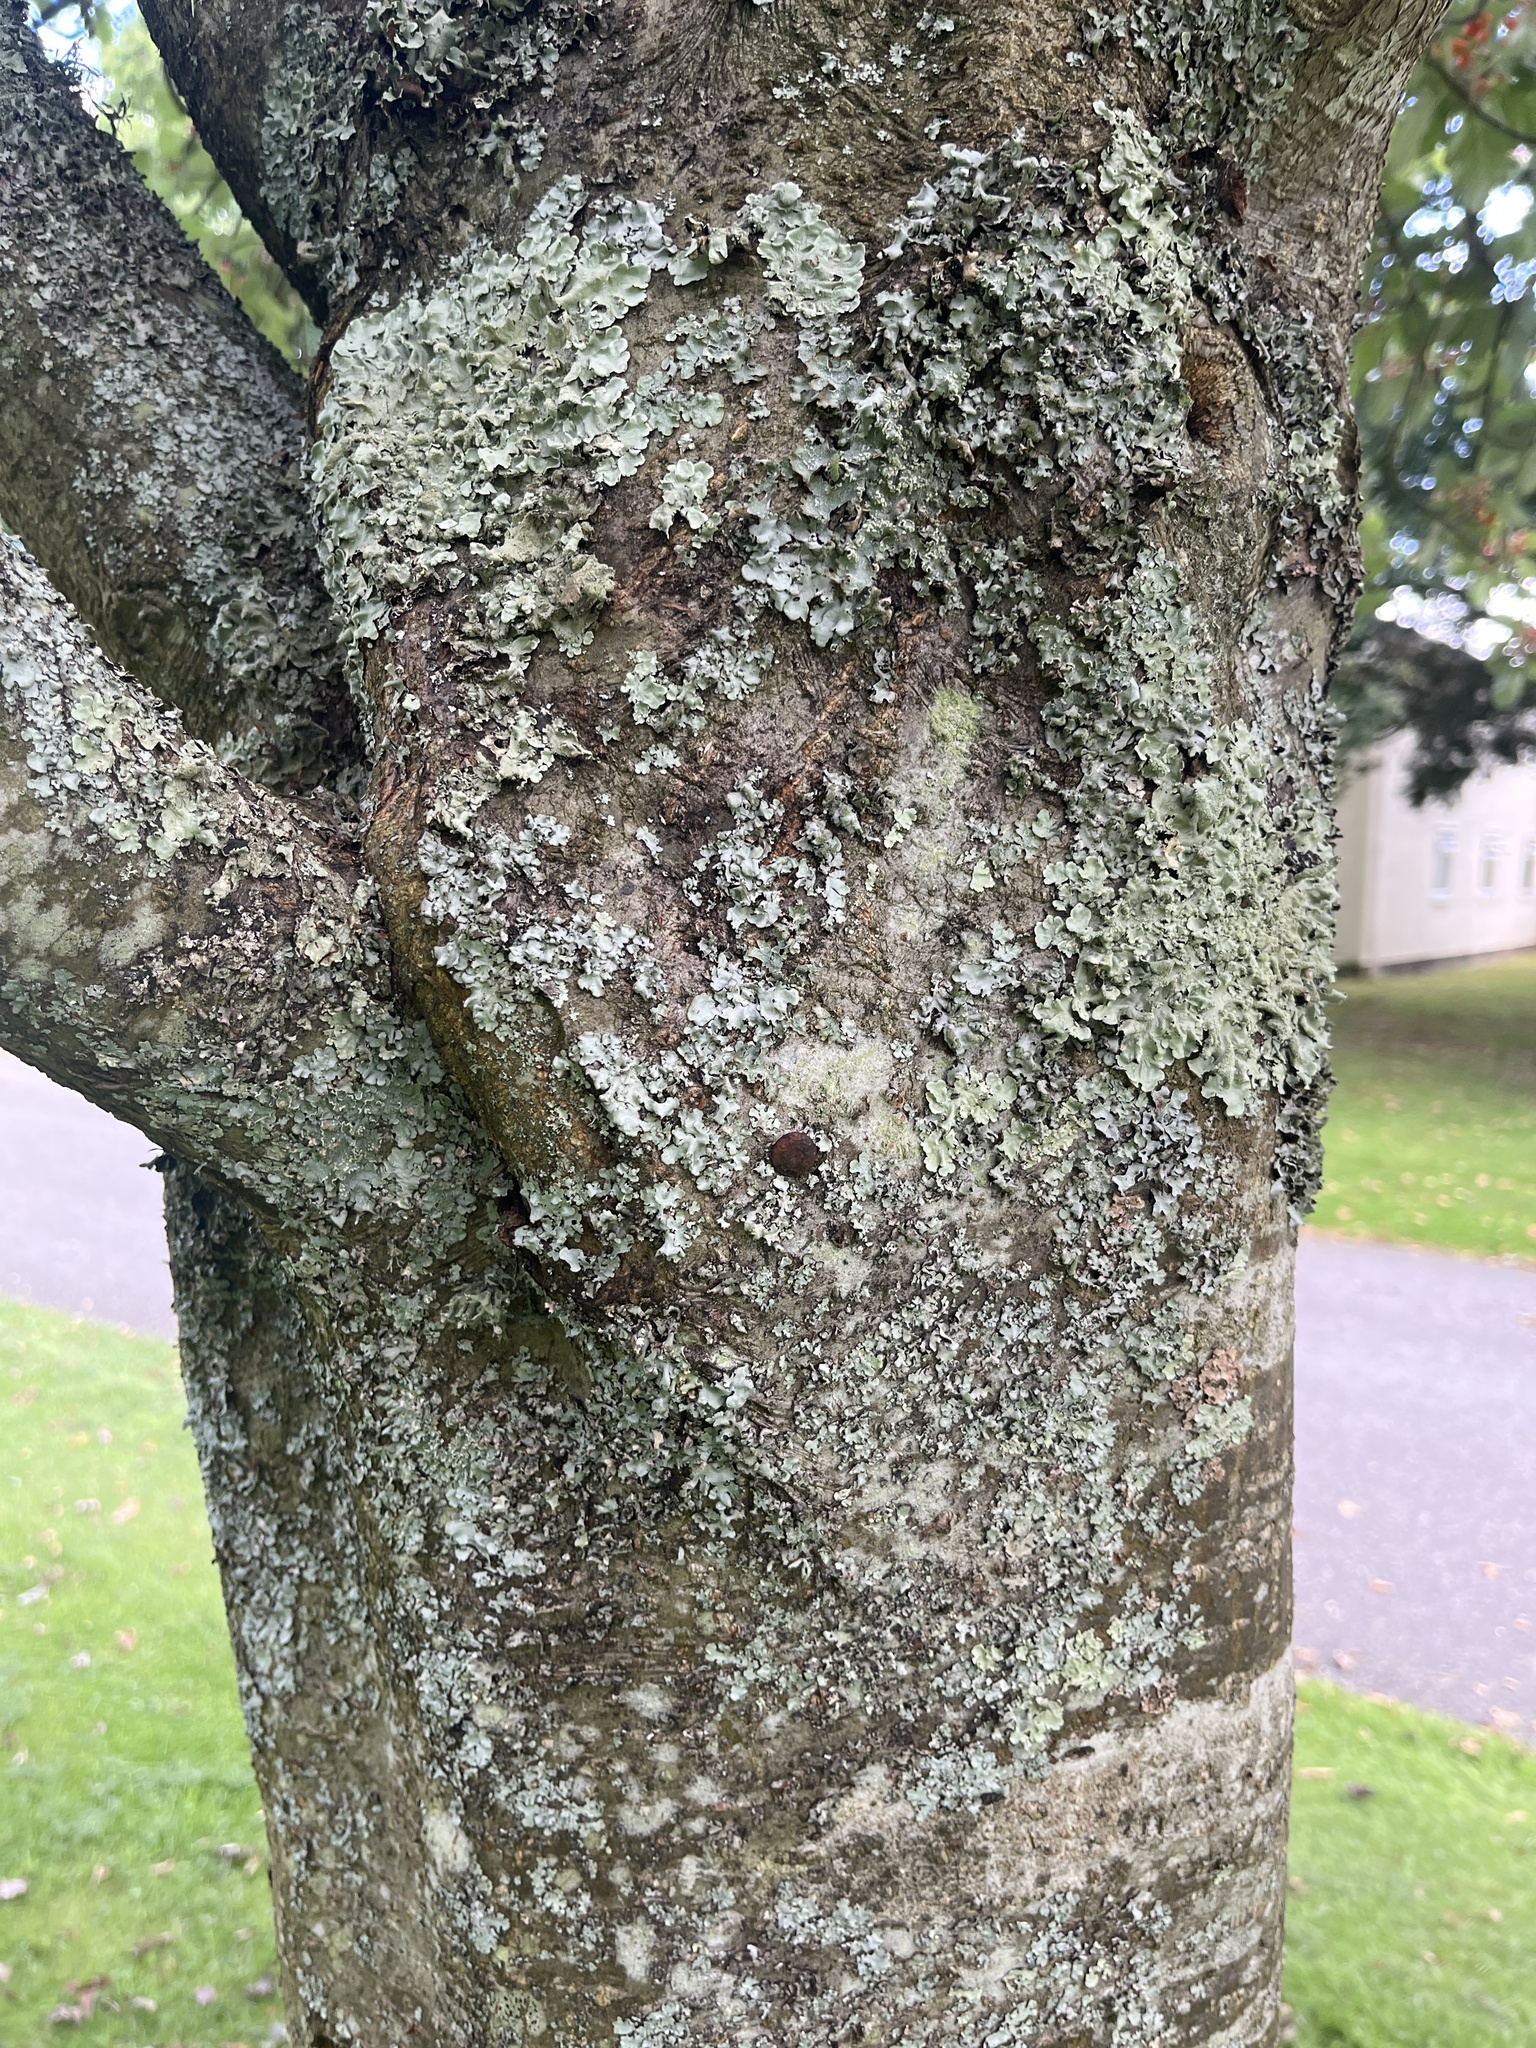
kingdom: Plantae
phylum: Tracheophyta
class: Magnoliopsida
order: Rosales
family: Rosaceae
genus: Hedlundia
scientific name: Hedlundia thuringiaca
